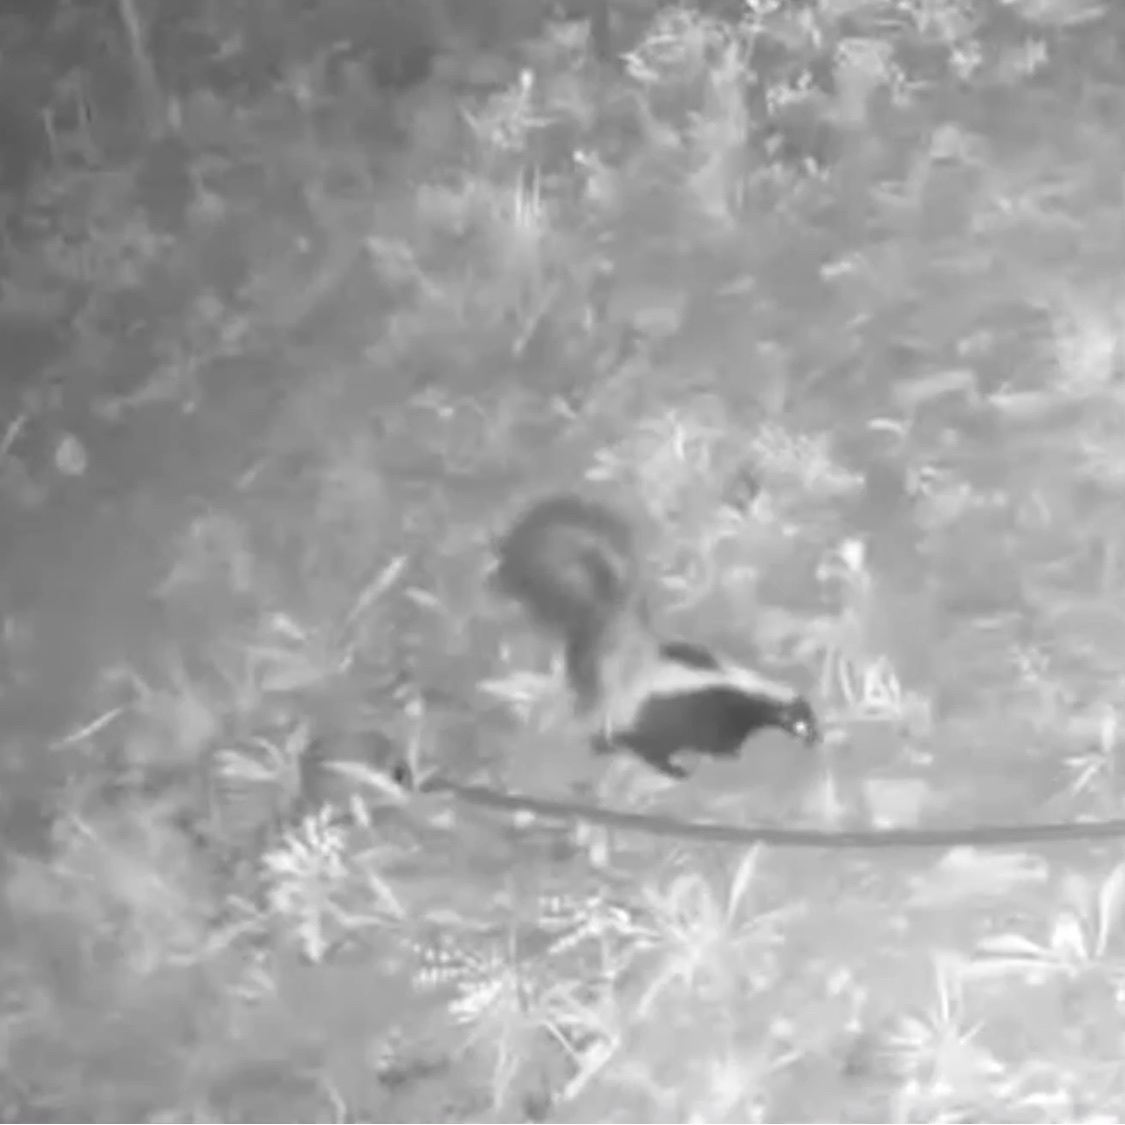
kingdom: Animalia
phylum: Chordata
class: Mammalia
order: Carnivora
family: Mephitidae
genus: Mephitis
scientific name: Mephitis mephitis
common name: Striped skunk
